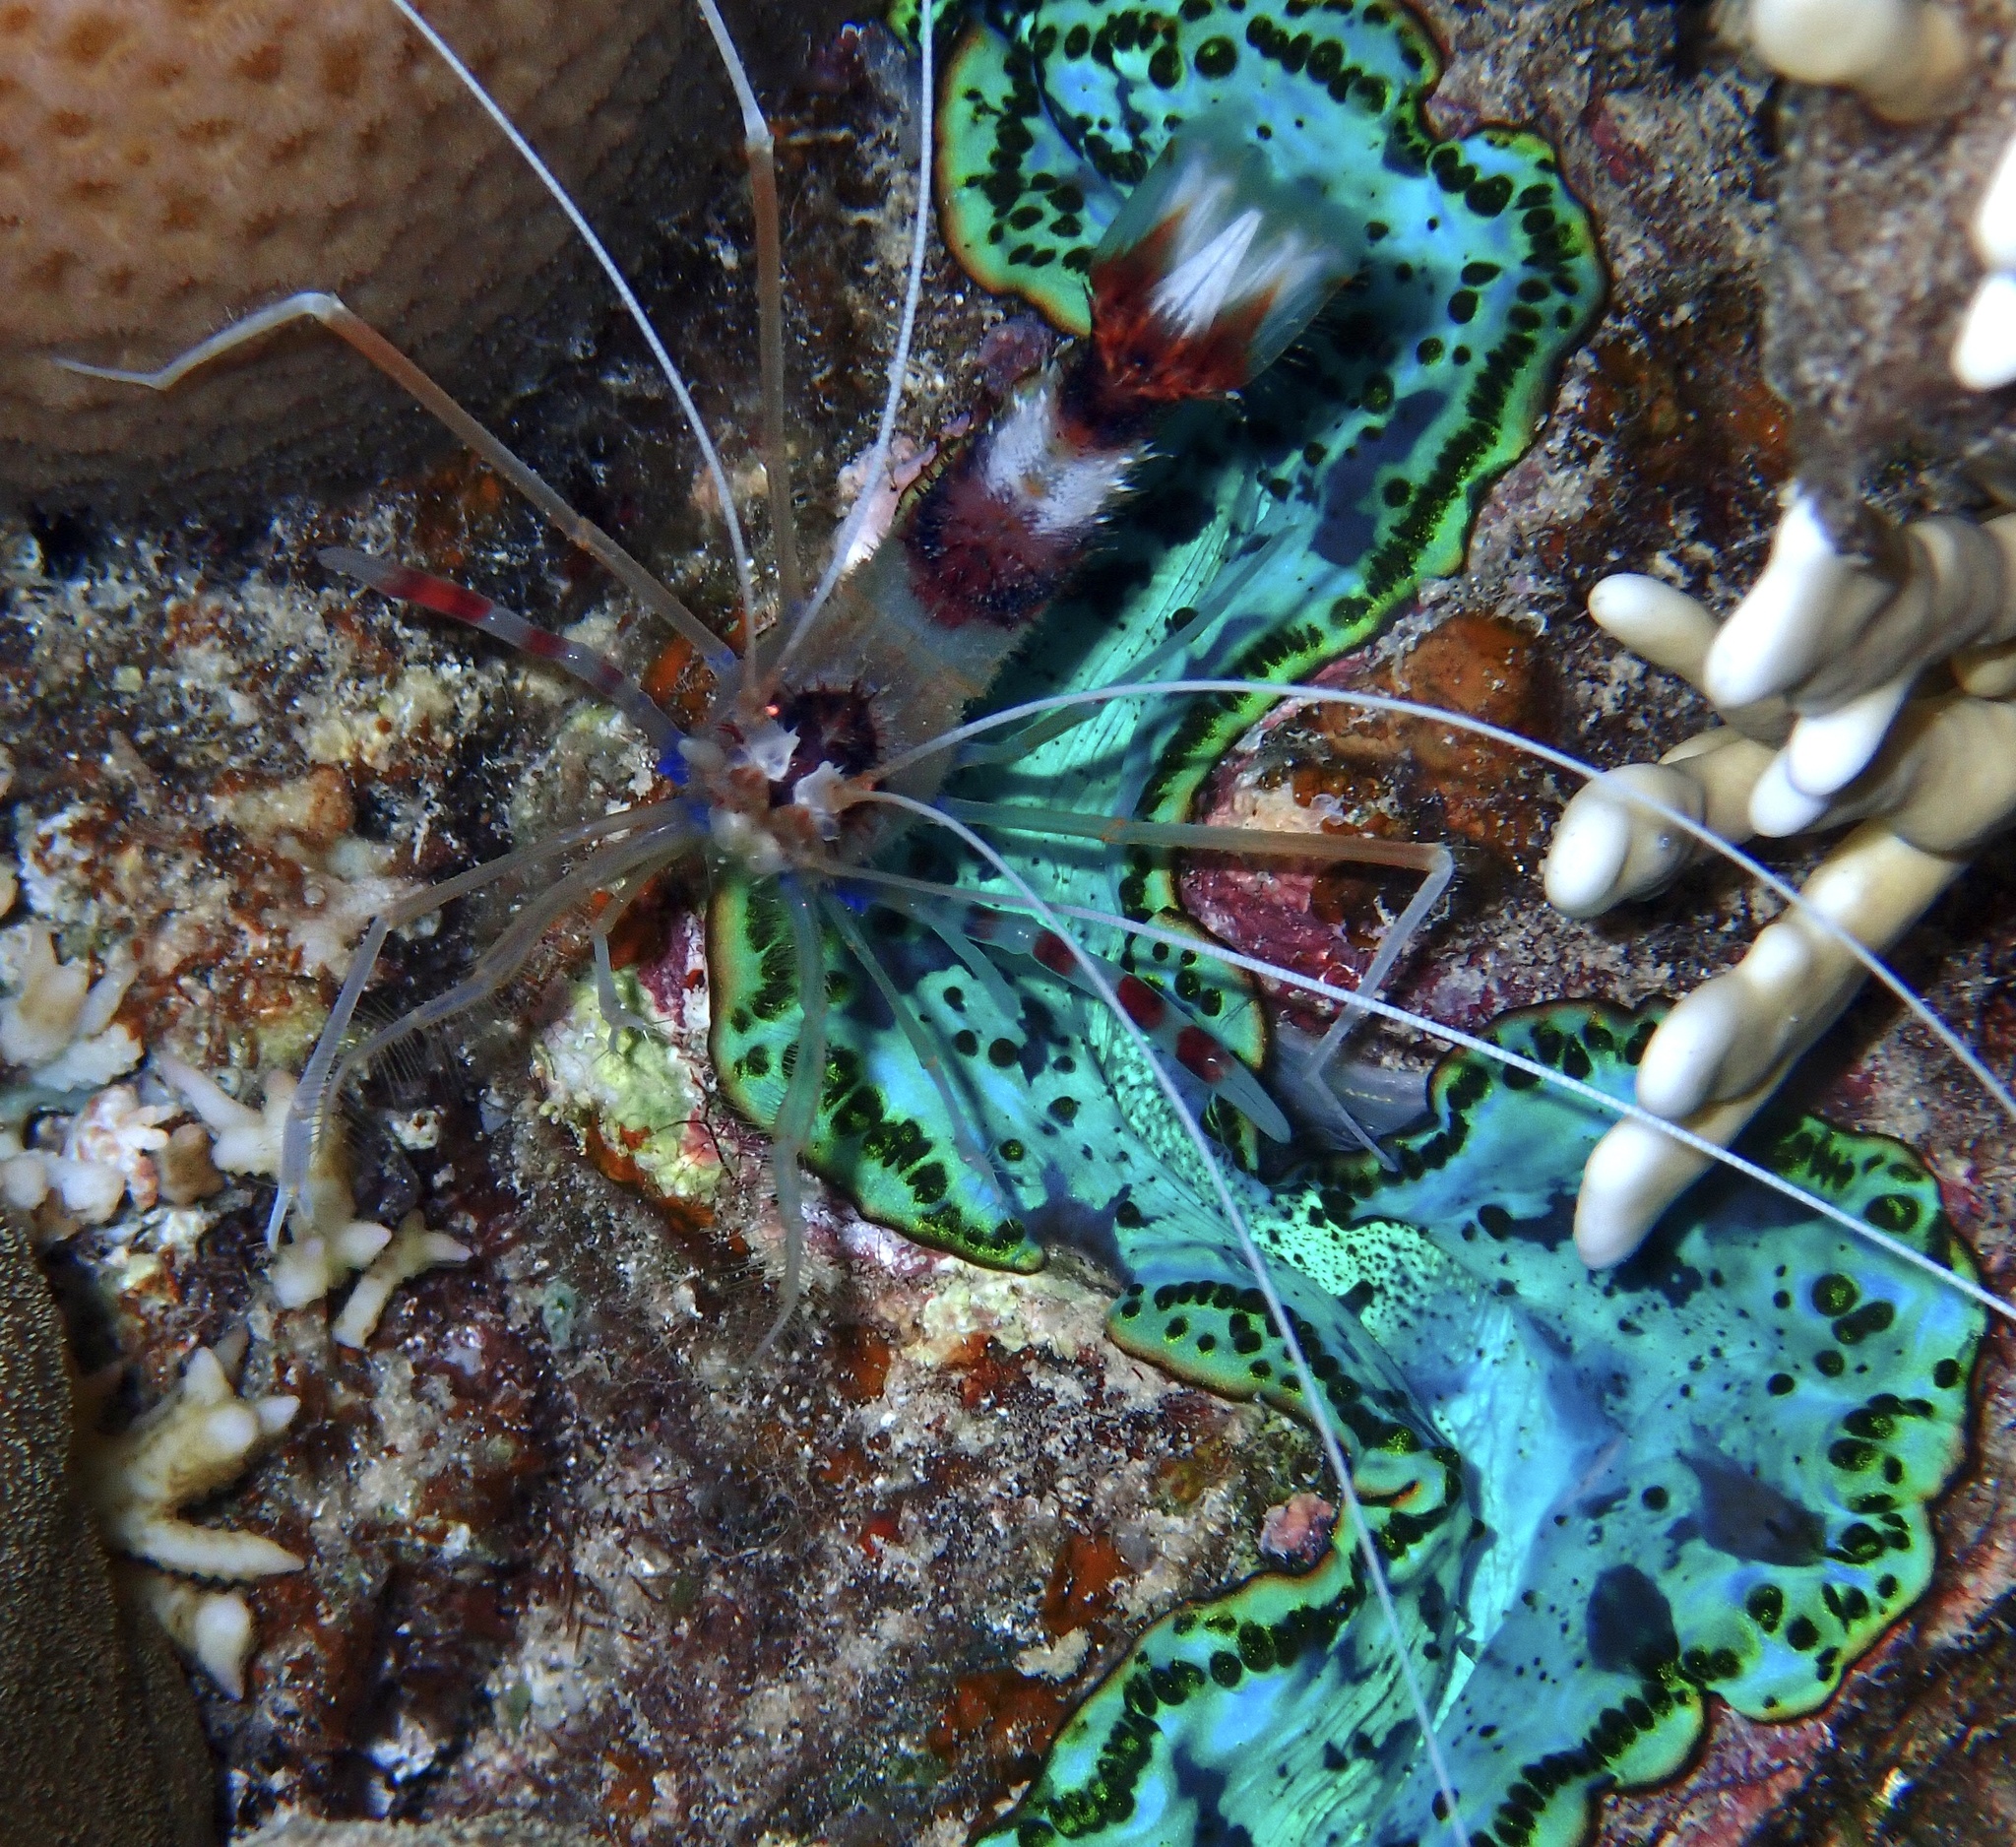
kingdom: Animalia
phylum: Arthropoda
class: Malacostraca
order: Decapoda
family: Stenopodidae
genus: Stenopus
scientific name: Stenopus hispidus
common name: Banded coral shrimp
